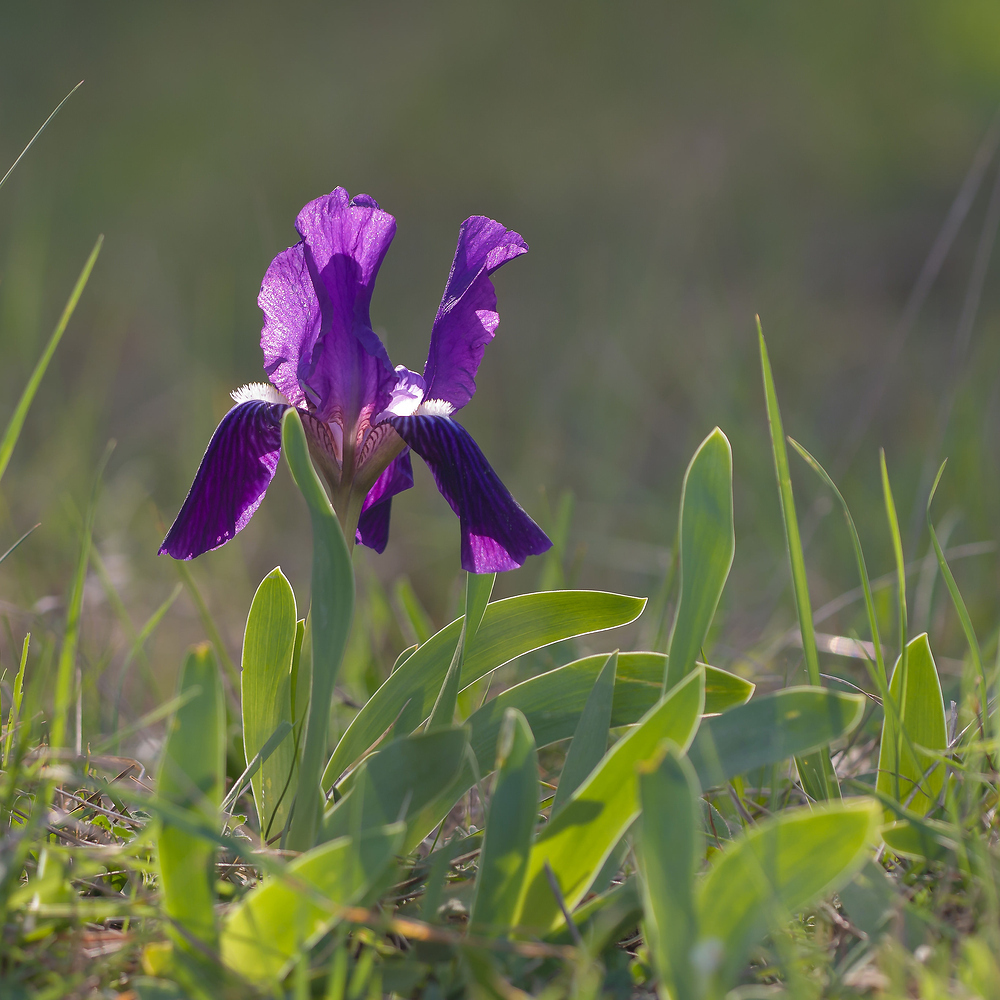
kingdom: Plantae
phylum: Tracheophyta
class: Liliopsida
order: Asparagales
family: Iridaceae
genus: Iris
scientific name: Iris lutescens
